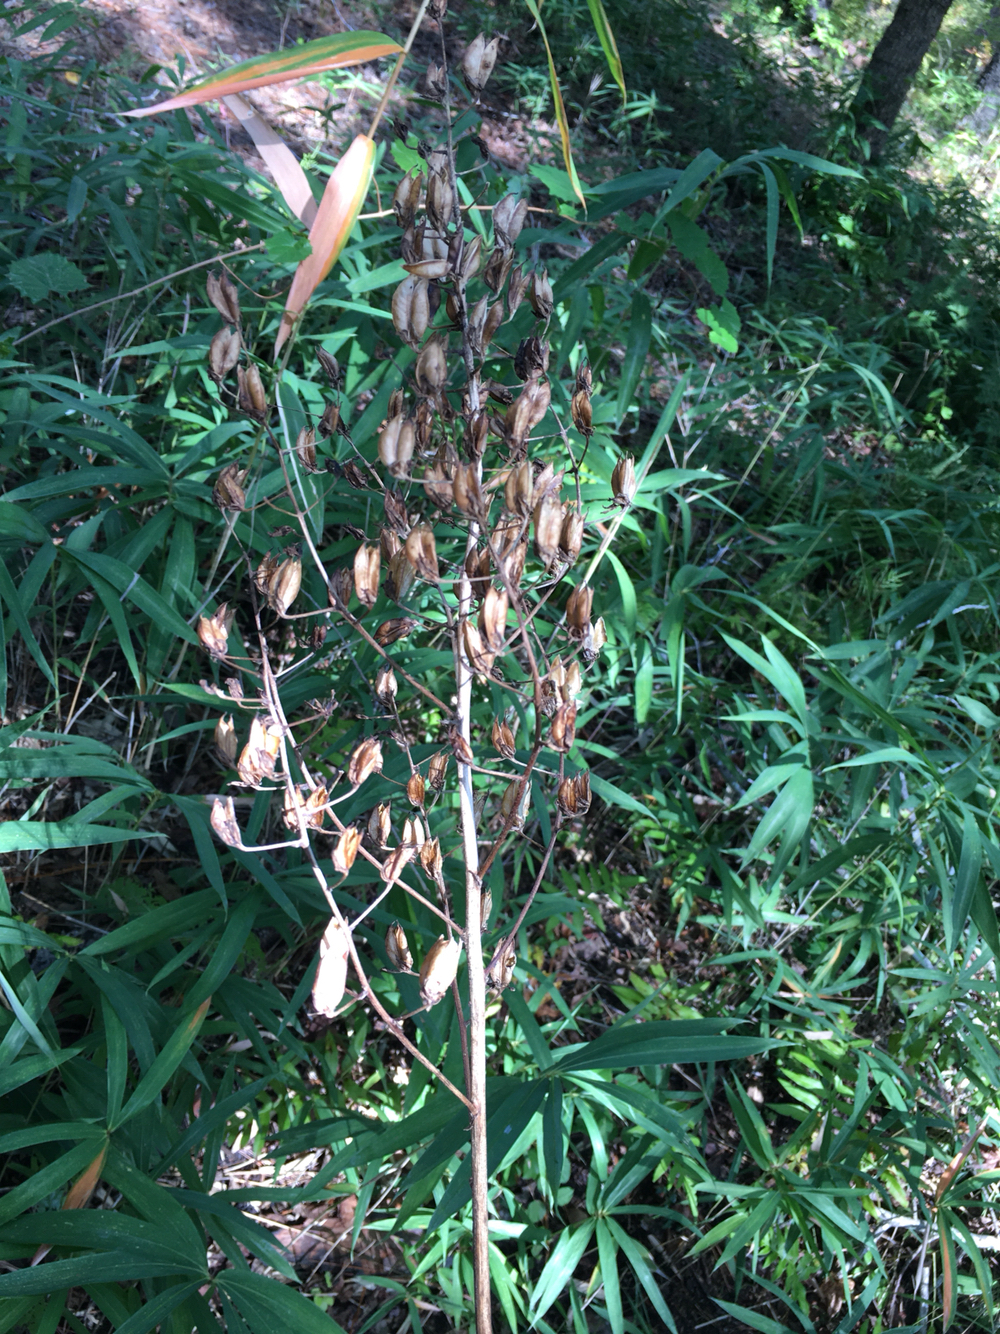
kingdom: Plantae
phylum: Tracheophyta
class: Liliopsida
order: Liliales
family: Melanthiaceae
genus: Melanthium
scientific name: Melanthium virginicum
